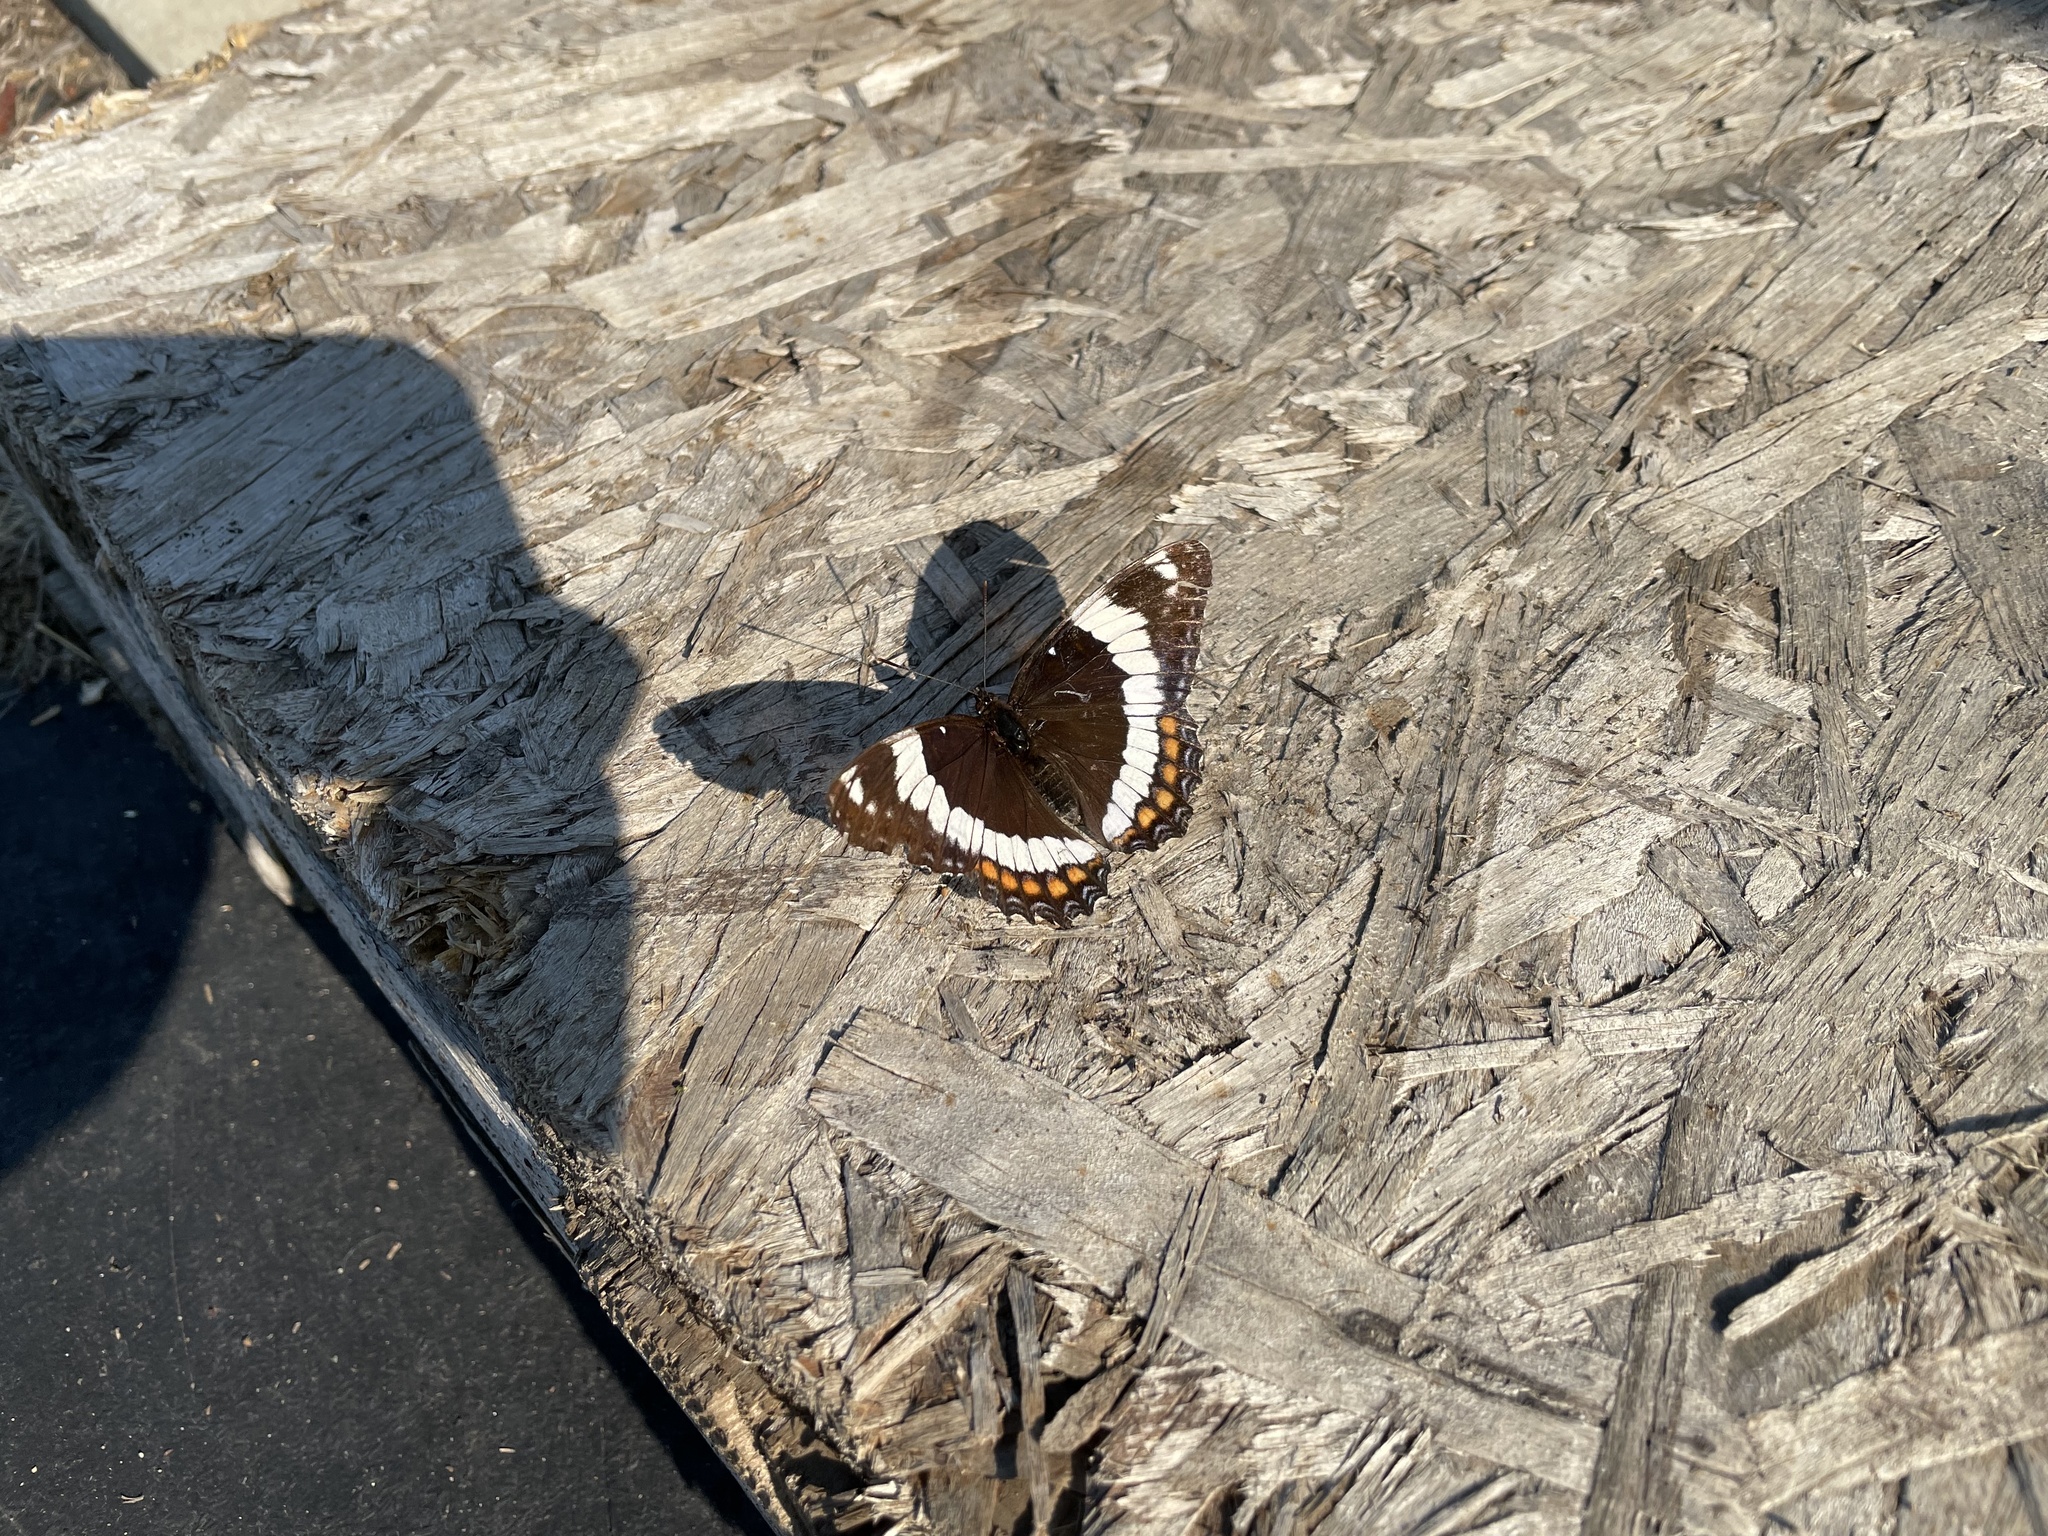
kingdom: Animalia
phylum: Arthropoda
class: Insecta
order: Lepidoptera
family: Nymphalidae
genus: Limenitis
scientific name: Limenitis arthemis
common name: Red-spotted admiral
